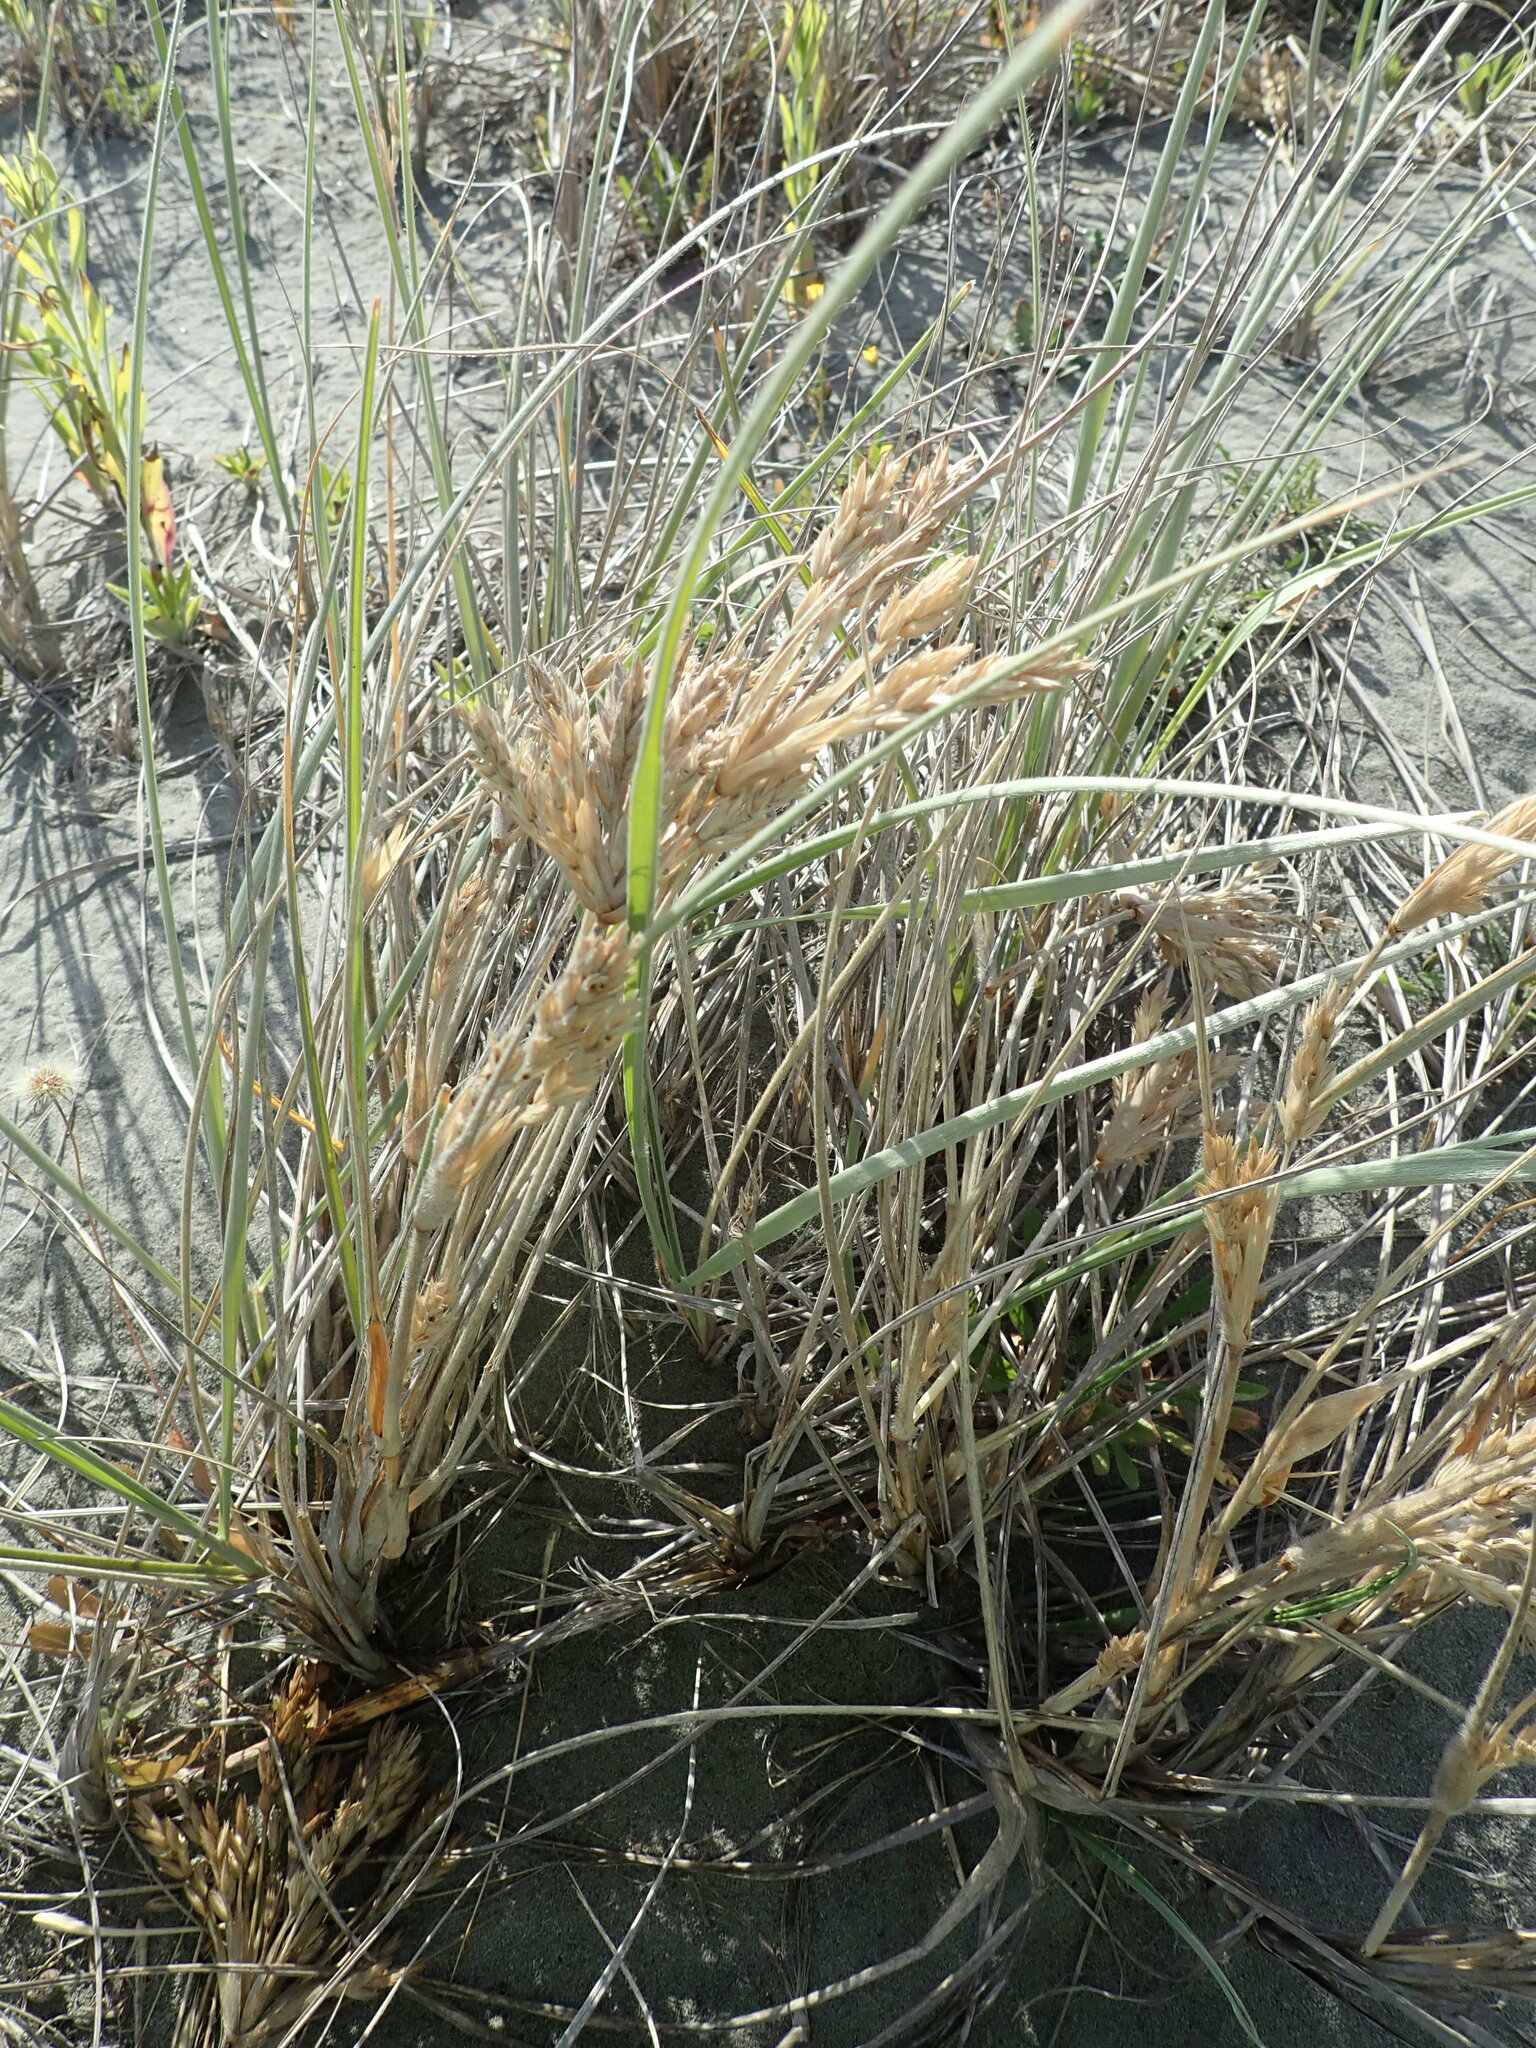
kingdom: Plantae
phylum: Tracheophyta
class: Liliopsida
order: Poales
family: Poaceae
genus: Spinifex
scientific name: Spinifex sericeus
